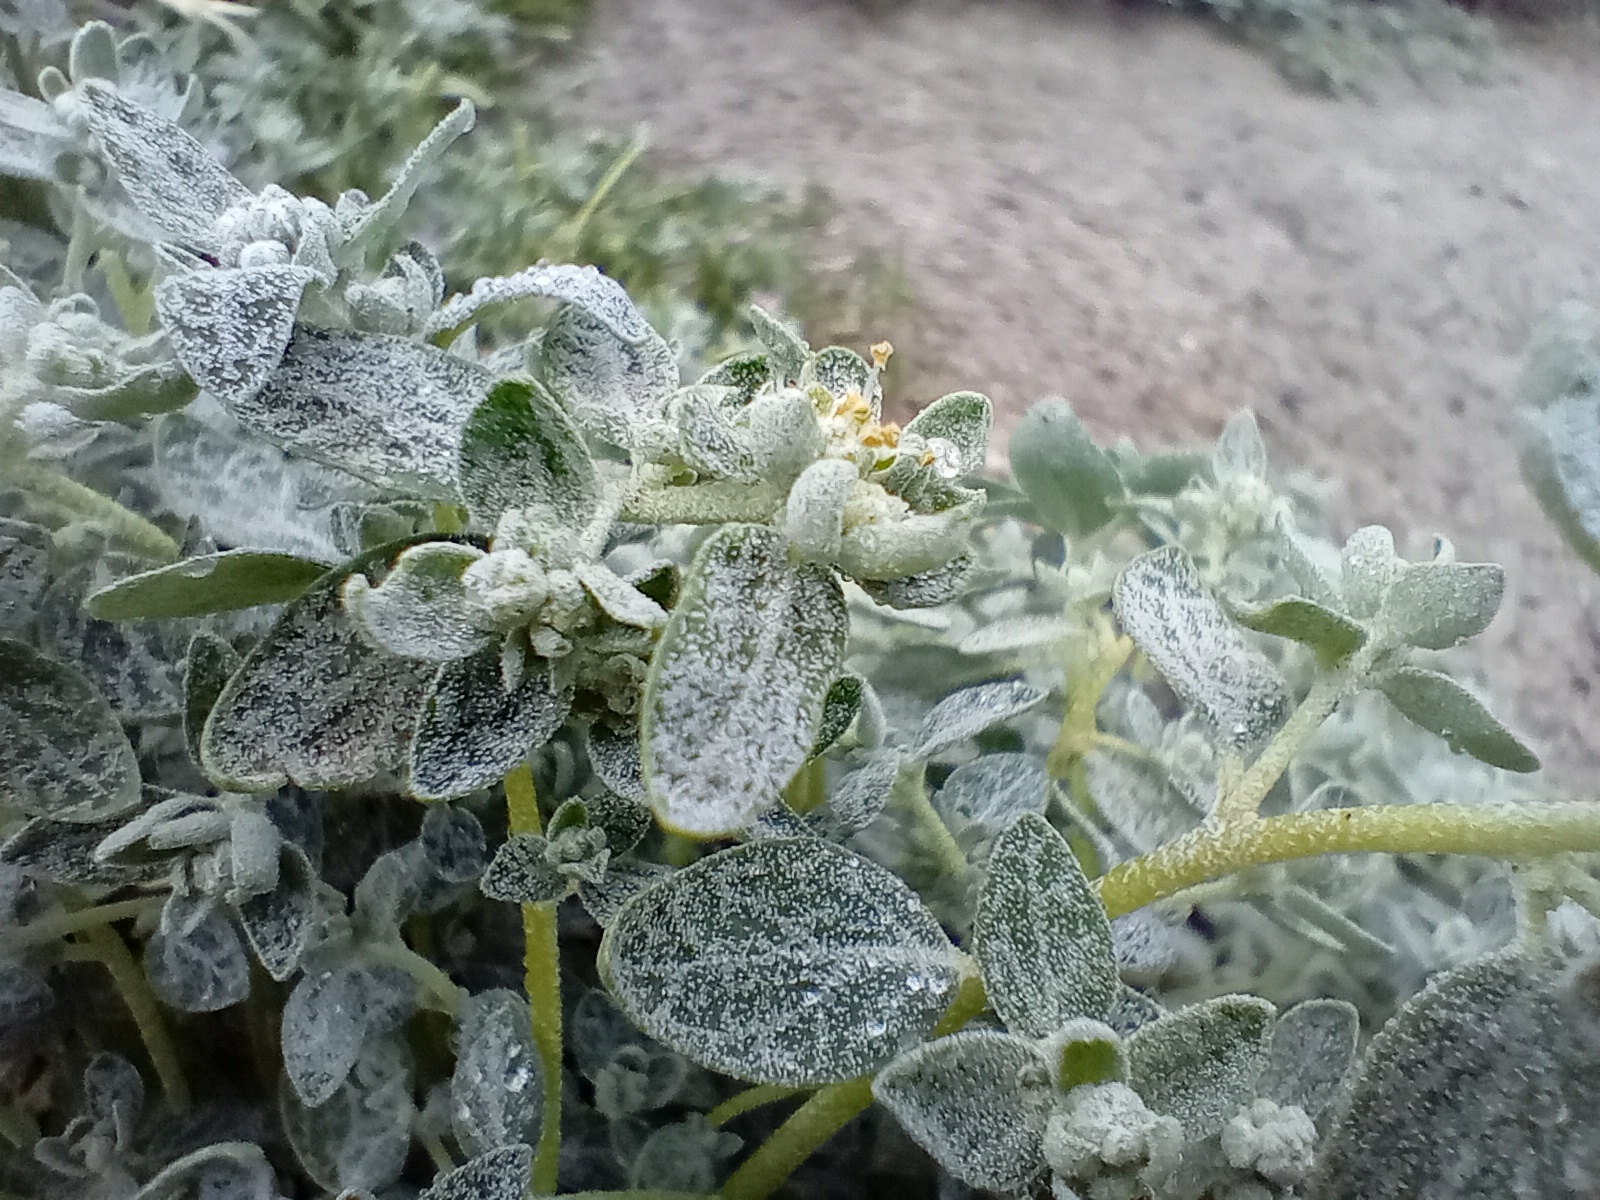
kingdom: Plantae
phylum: Tracheophyta
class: Magnoliopsida
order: Caryophyllales
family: Amaranthaceae
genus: Atriplex
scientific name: Atriplex buchananii
